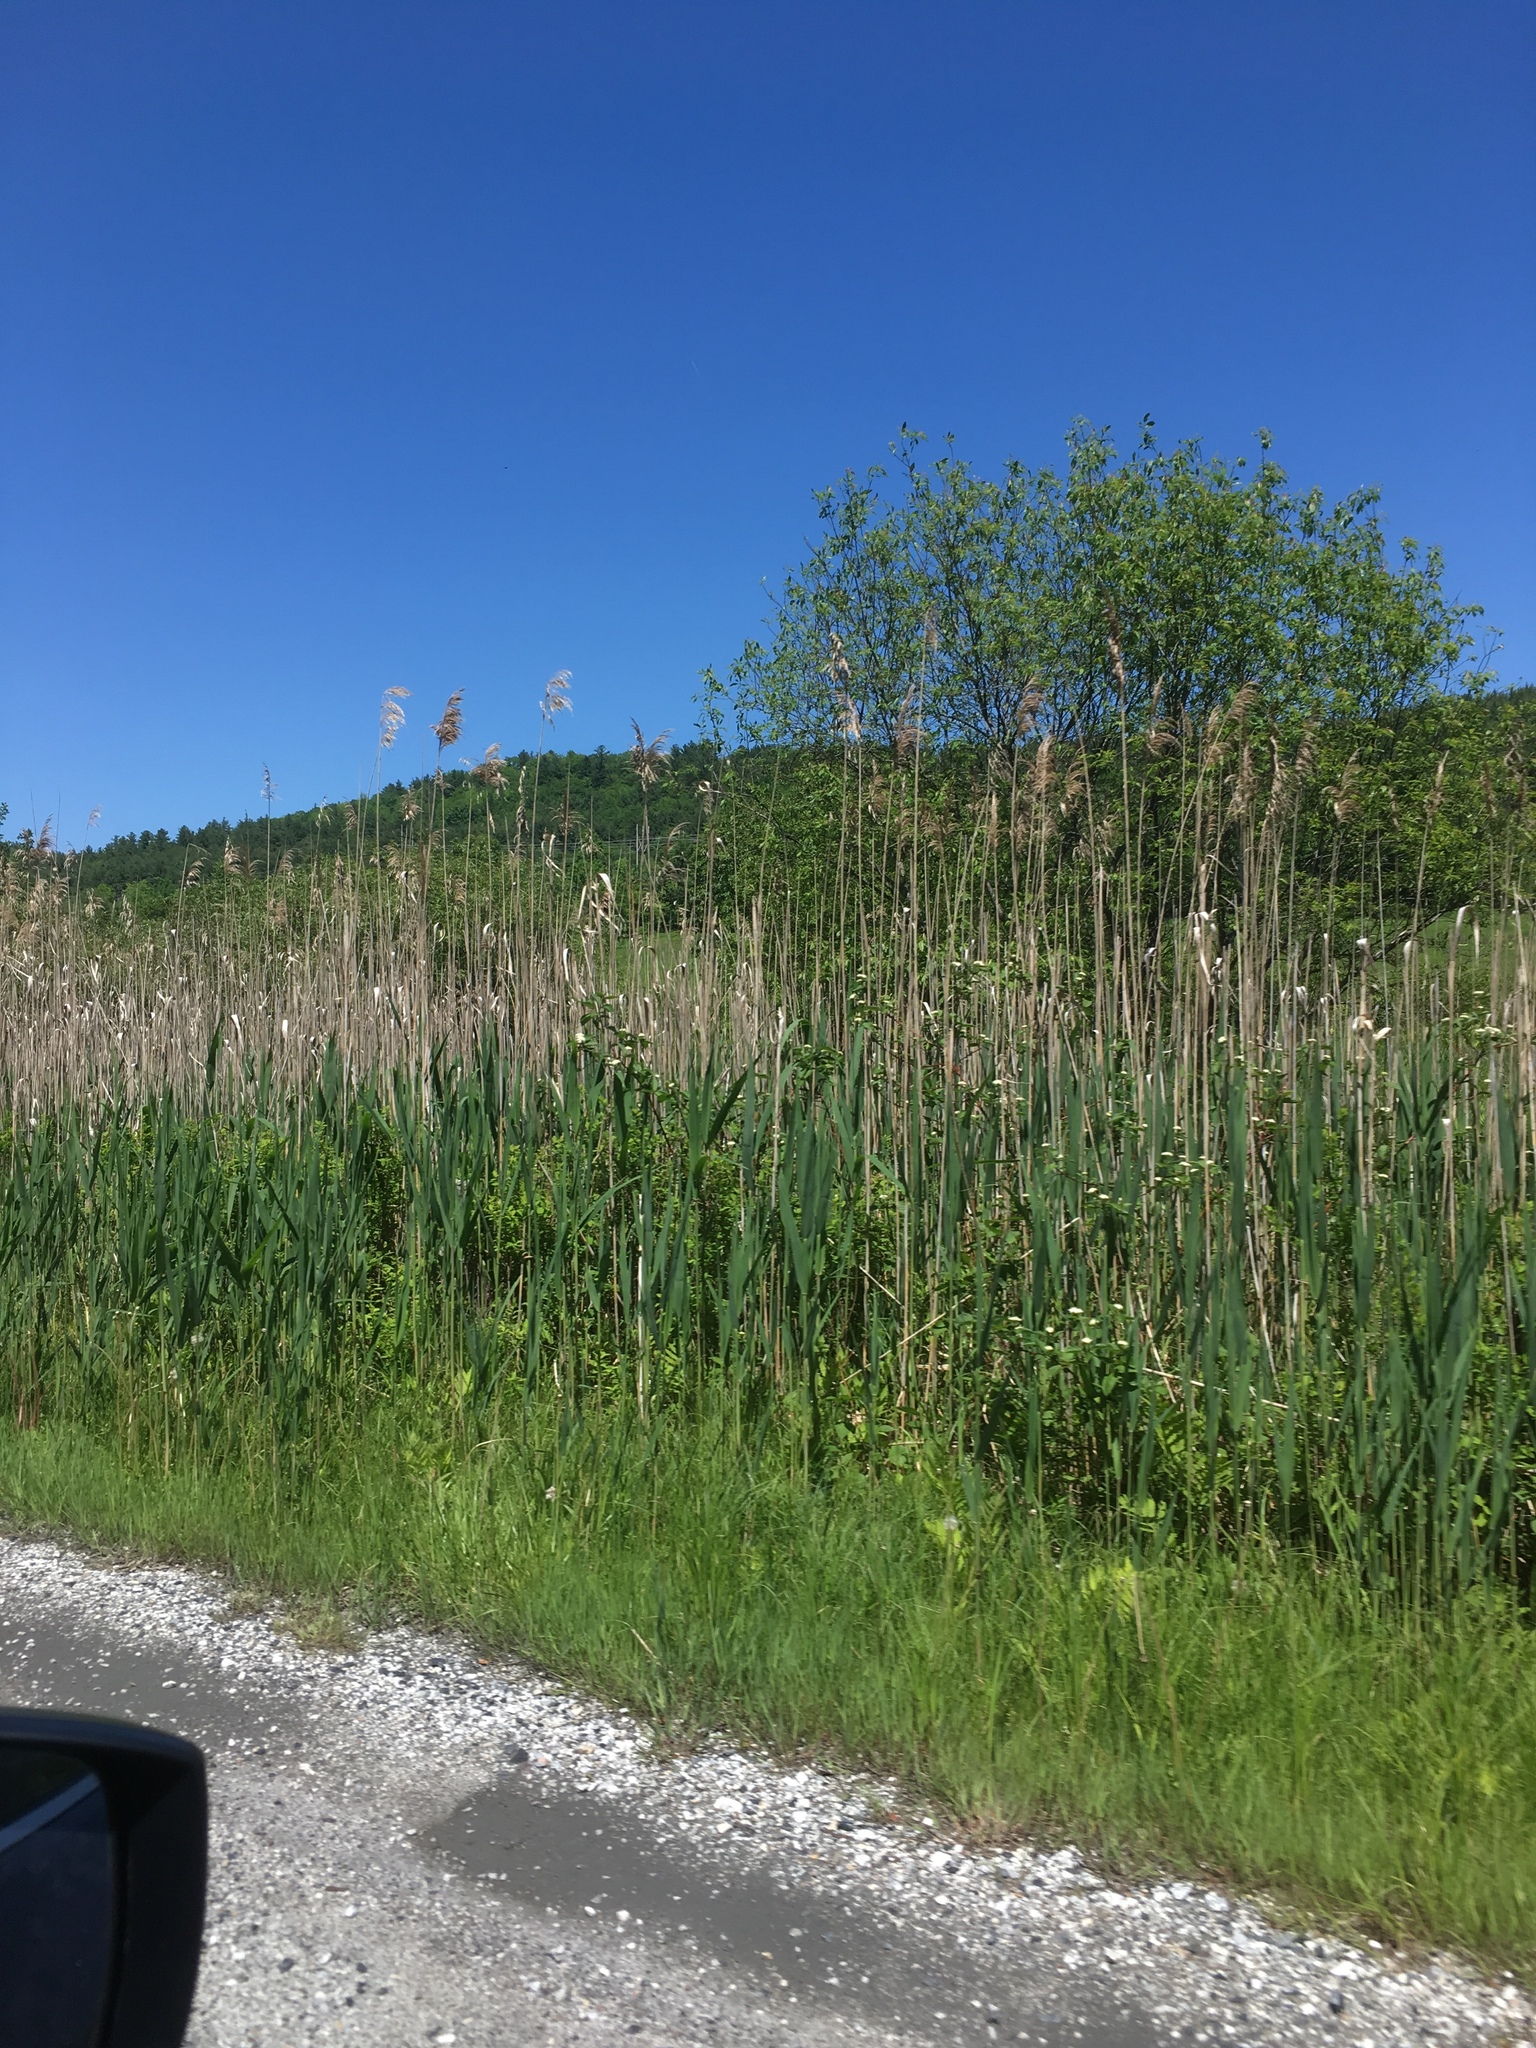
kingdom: Plantae
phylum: Tracheophyta
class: Liliopsida
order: Poales
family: Poaceae
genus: Phragmites
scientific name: Phragmites australis
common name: Common reed
